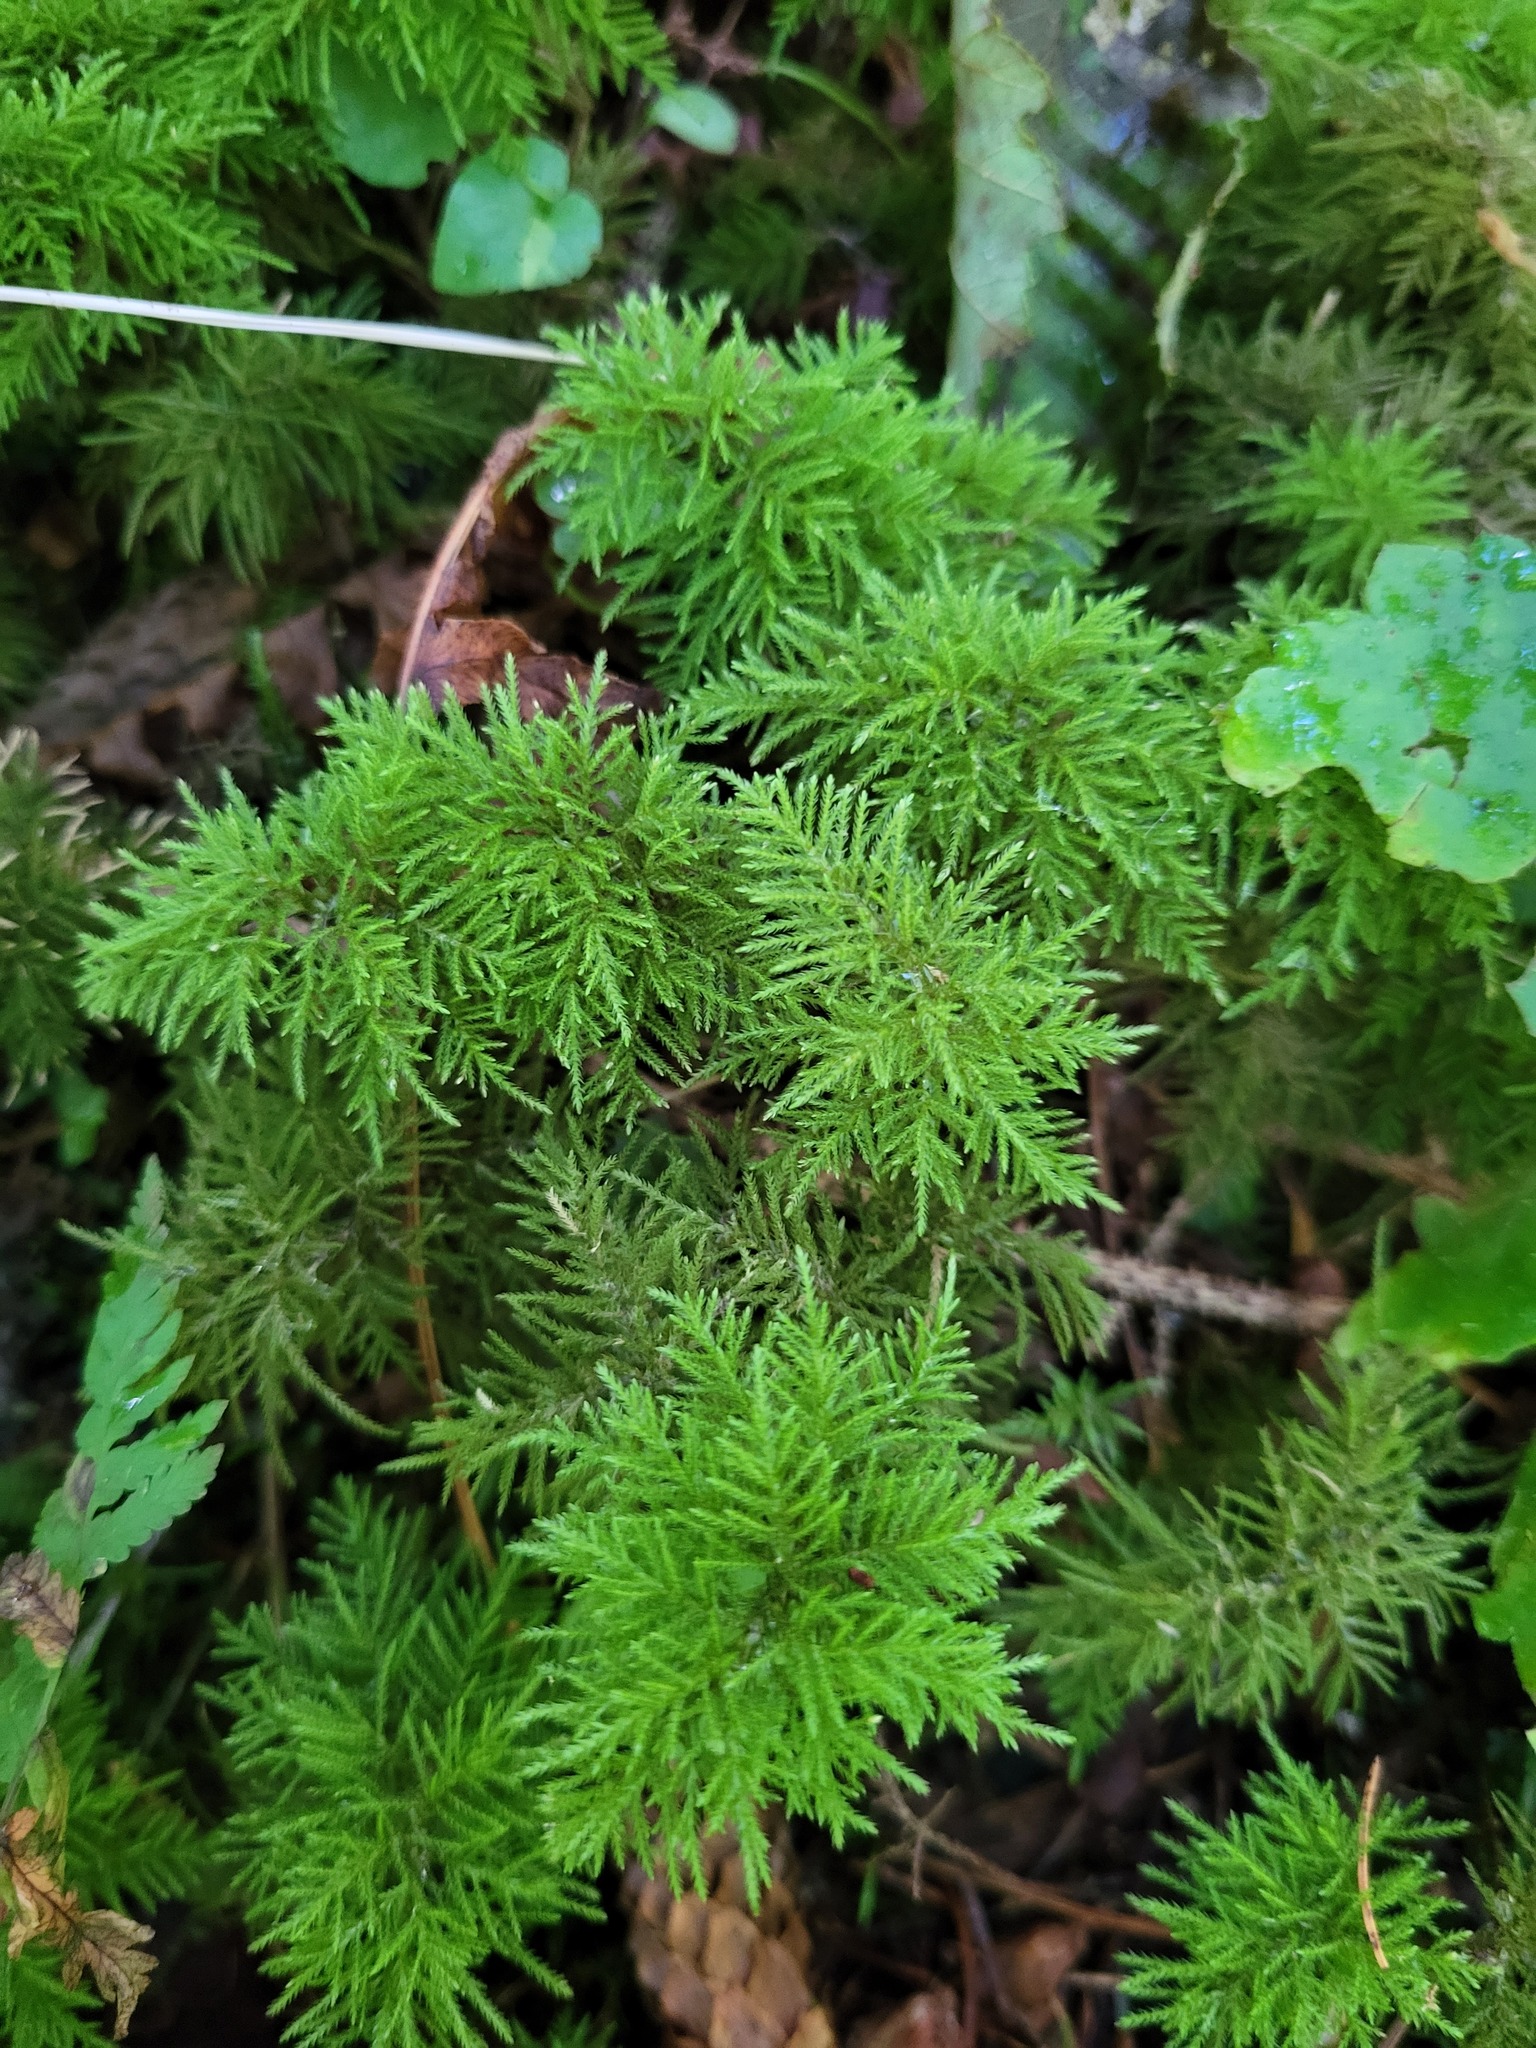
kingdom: Plantae
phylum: Bryophyta
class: Bryopsida
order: Hypnales
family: Climaciaceae
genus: Pleuroziopsis
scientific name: Pleuroziopsis ruthenica
